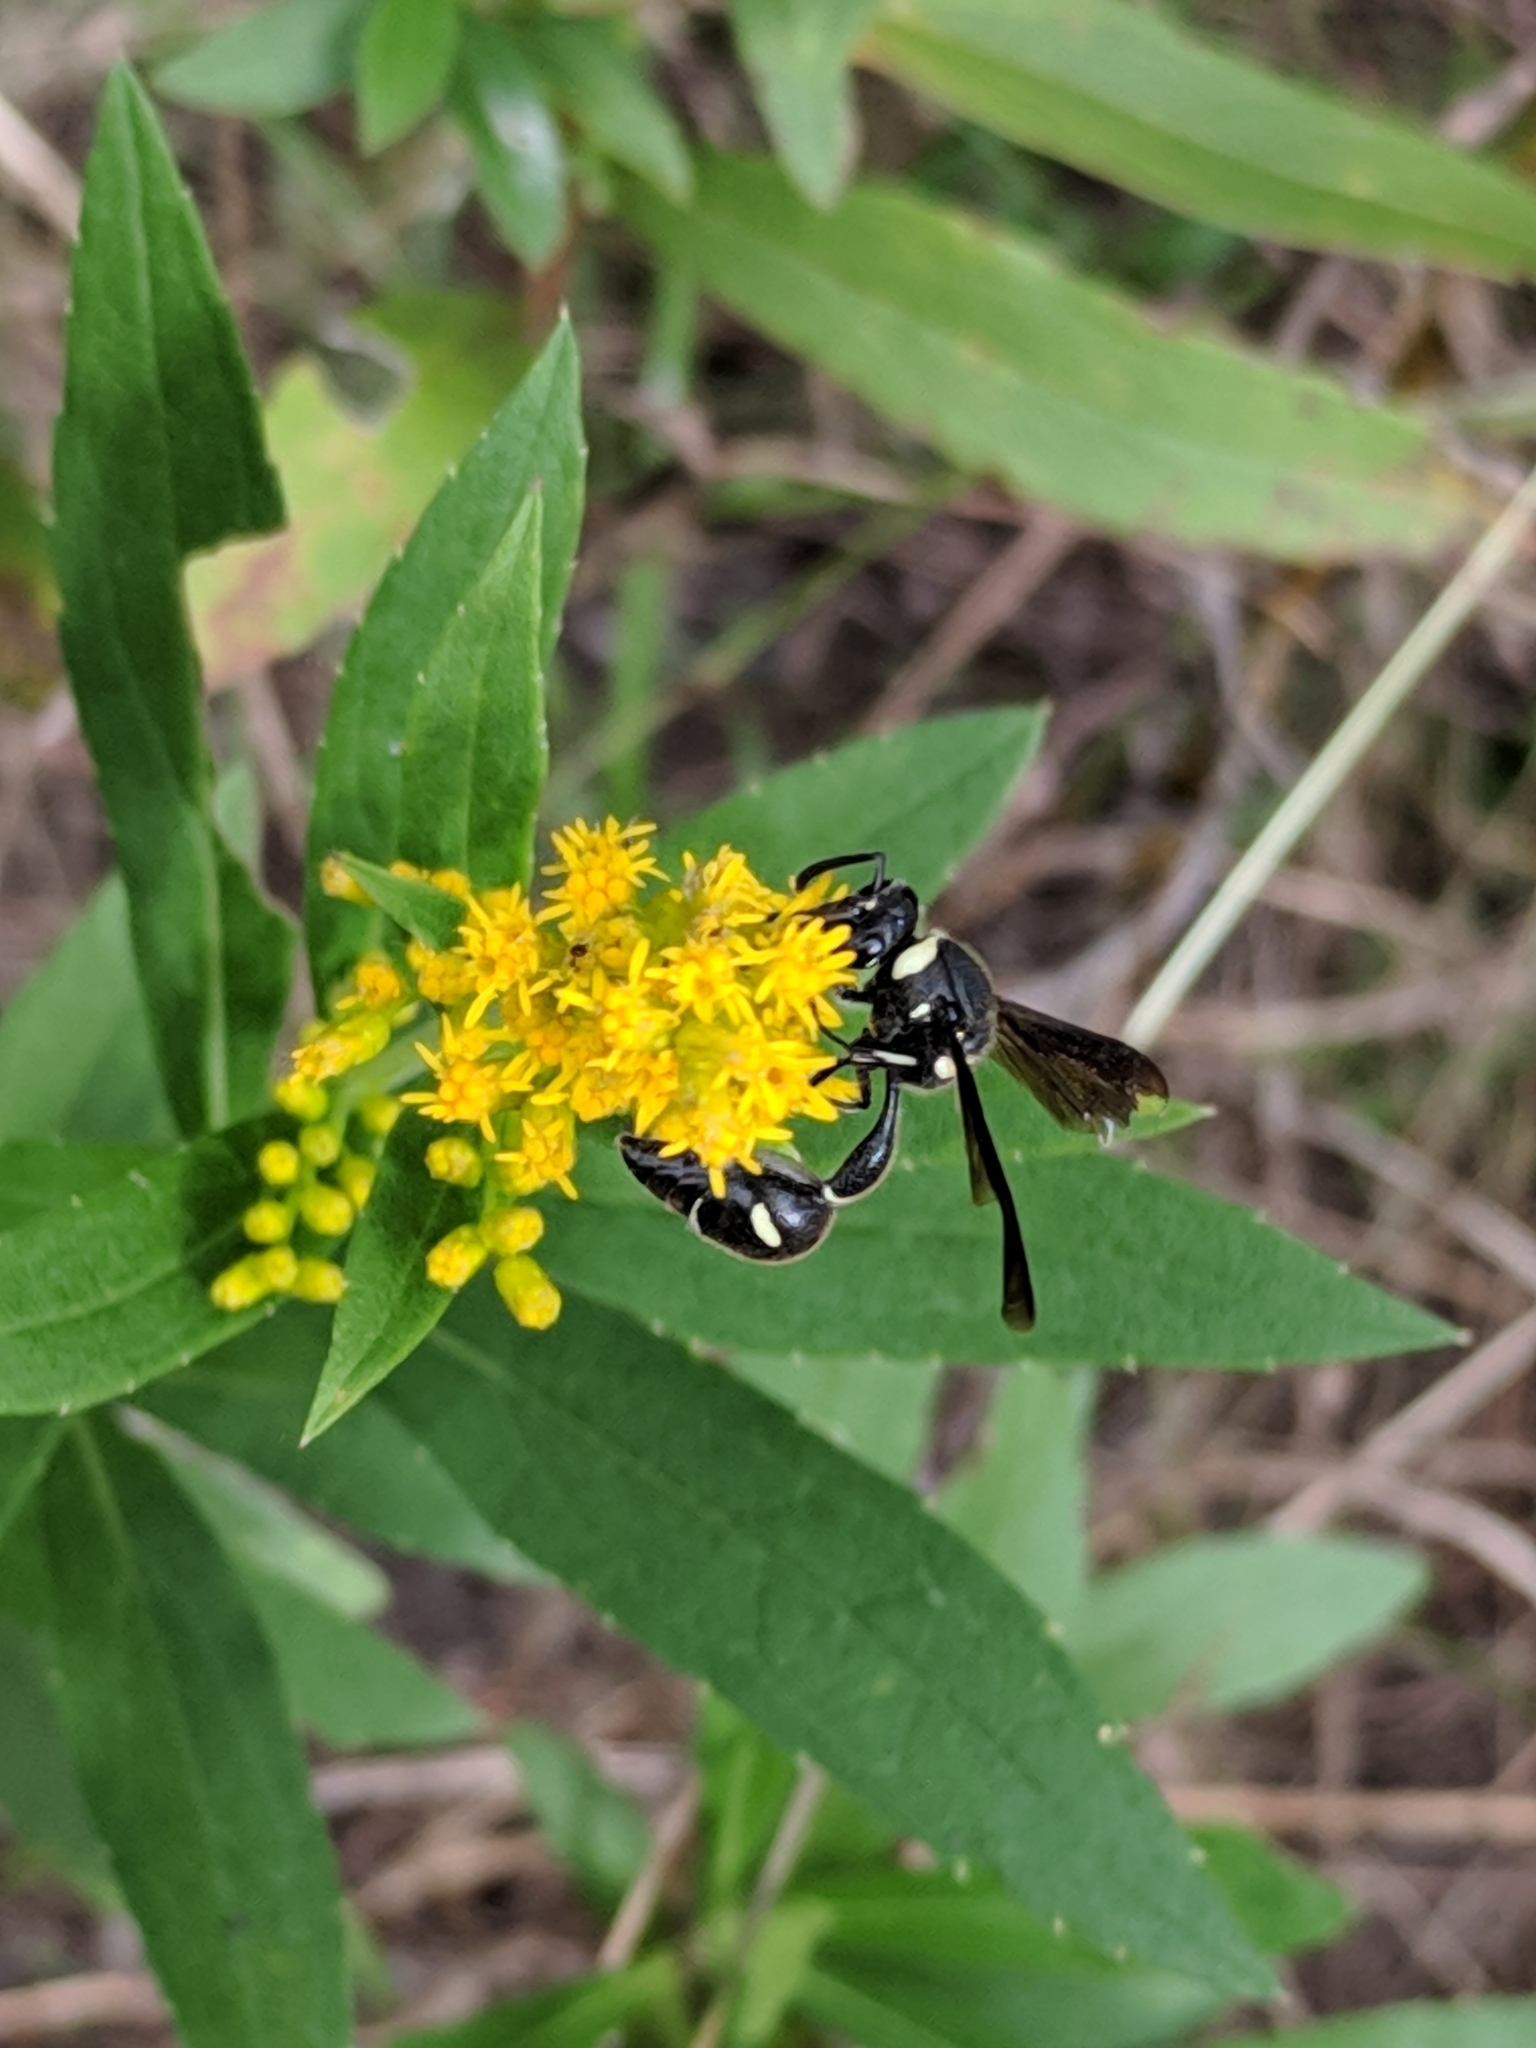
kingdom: Animalia
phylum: Arthropoda
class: Insecta
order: Hymenoptera
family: Vespidae
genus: Eumenes
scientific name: Eumenes fraternus
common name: Fraternal potter wasp
